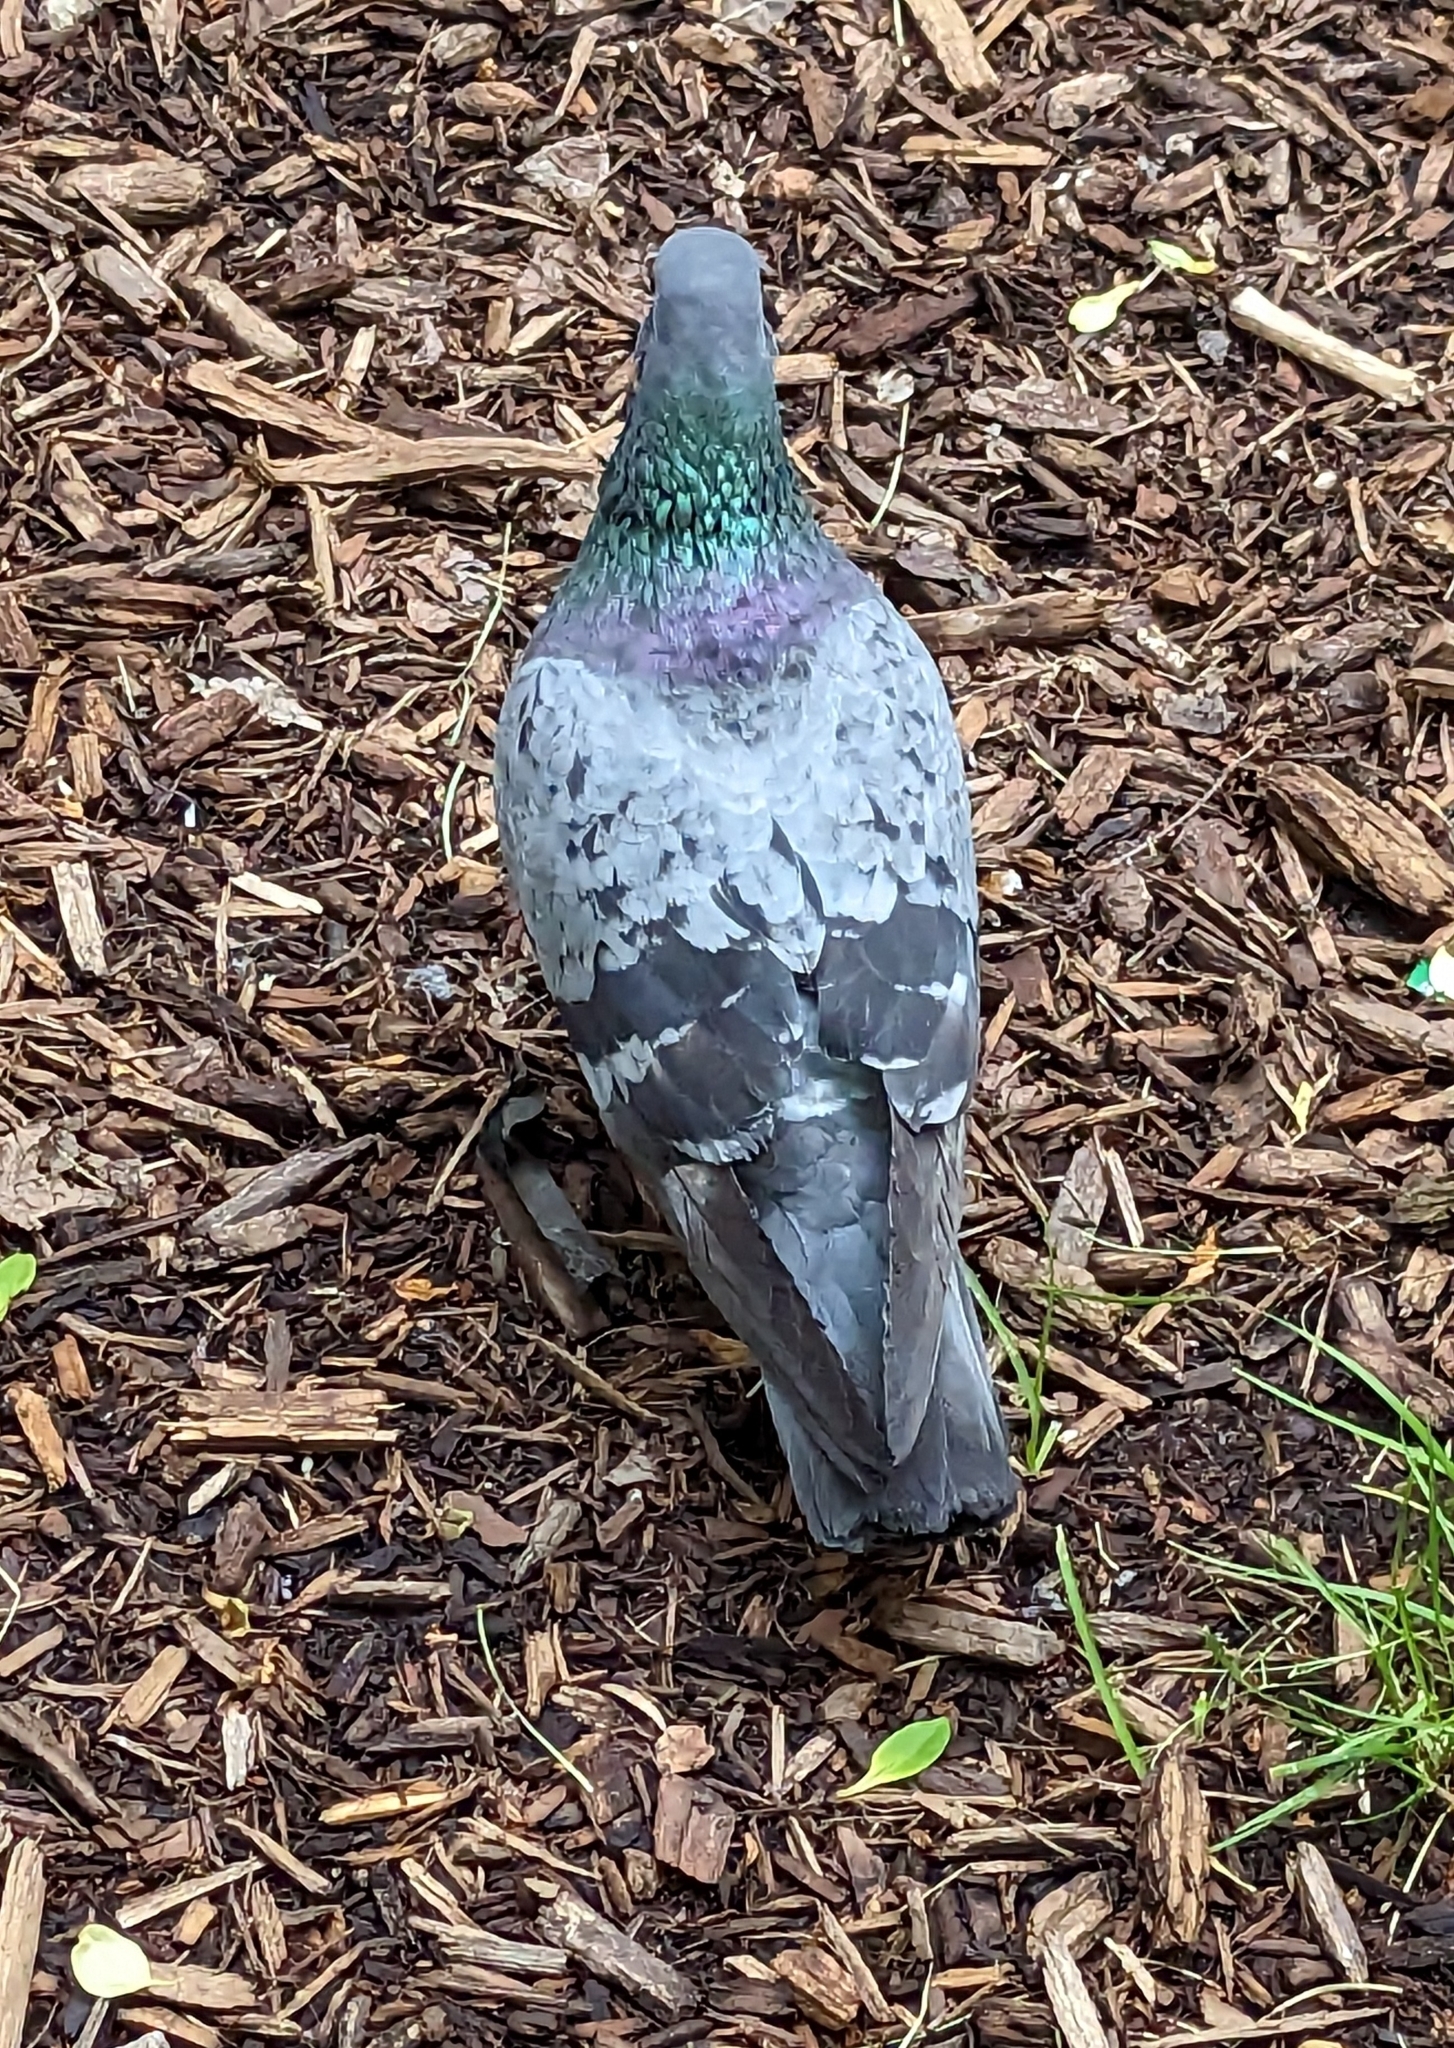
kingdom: Animalia
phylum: Chordata
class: Aves
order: Columbiformes
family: Columbidae
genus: Columba
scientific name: Columba livia
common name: Rock pigeon
